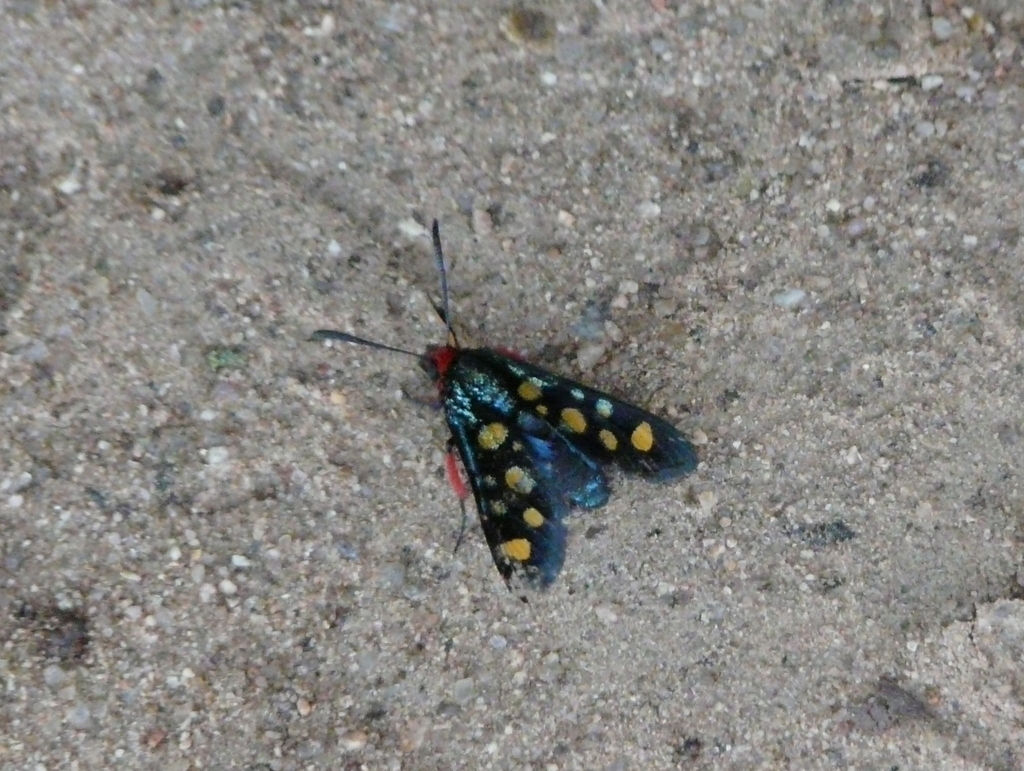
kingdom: Animalia
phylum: Arthropoda
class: Insecta
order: Lepidoptera
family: Thyrididae
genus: Arniocera
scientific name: Arniocera auriguttata
